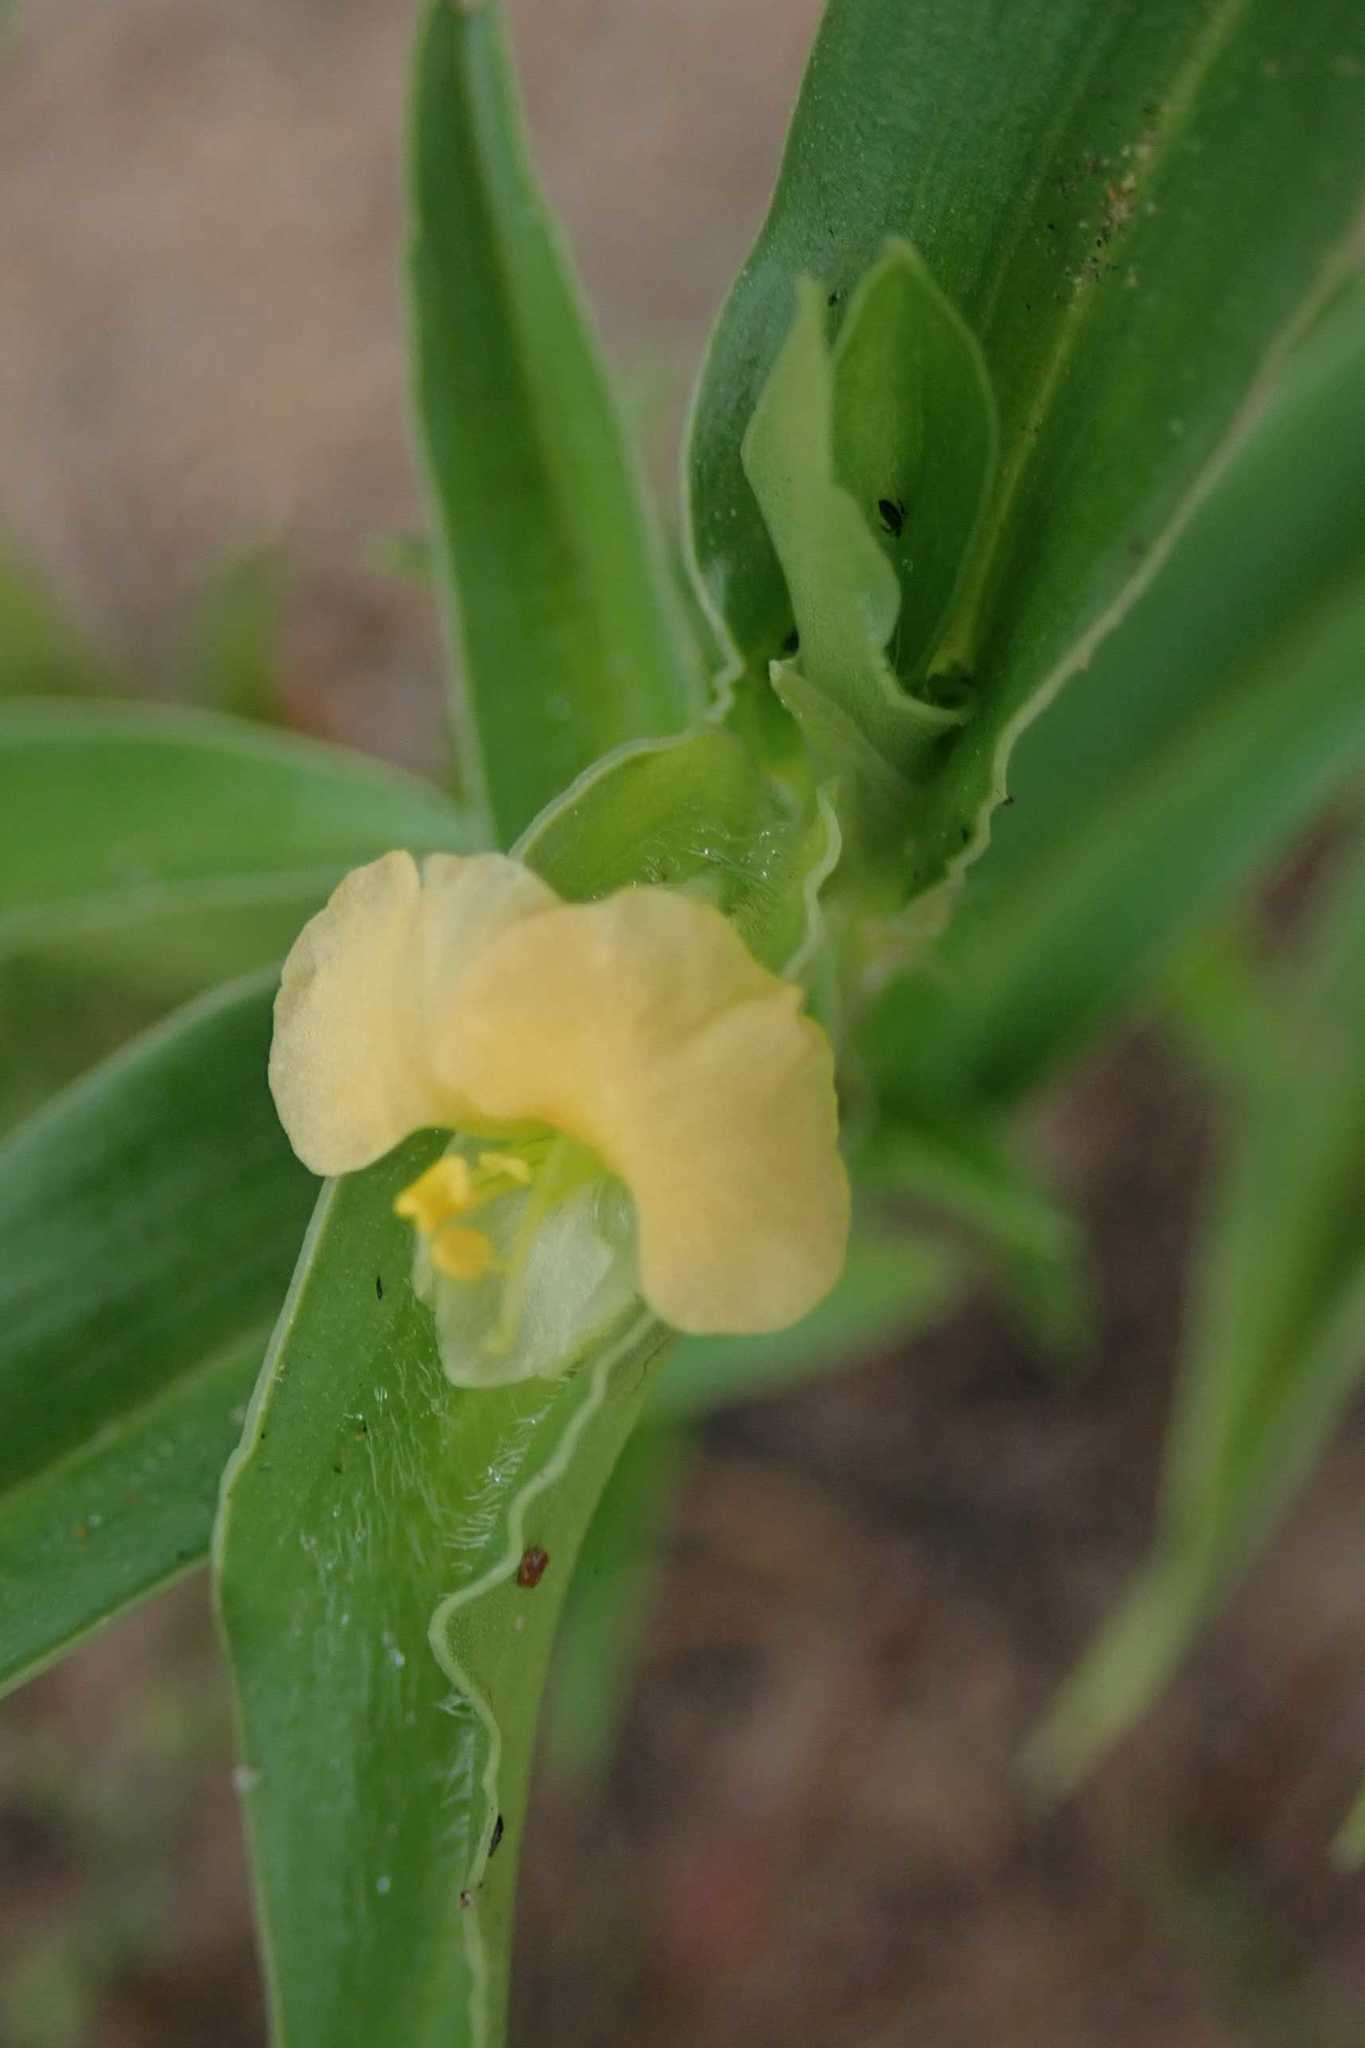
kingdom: Plantae
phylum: Tracheophyta
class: Liliopsida
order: Commelinales
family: Commelinaceae
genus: Commelina
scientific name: Commelina africana
